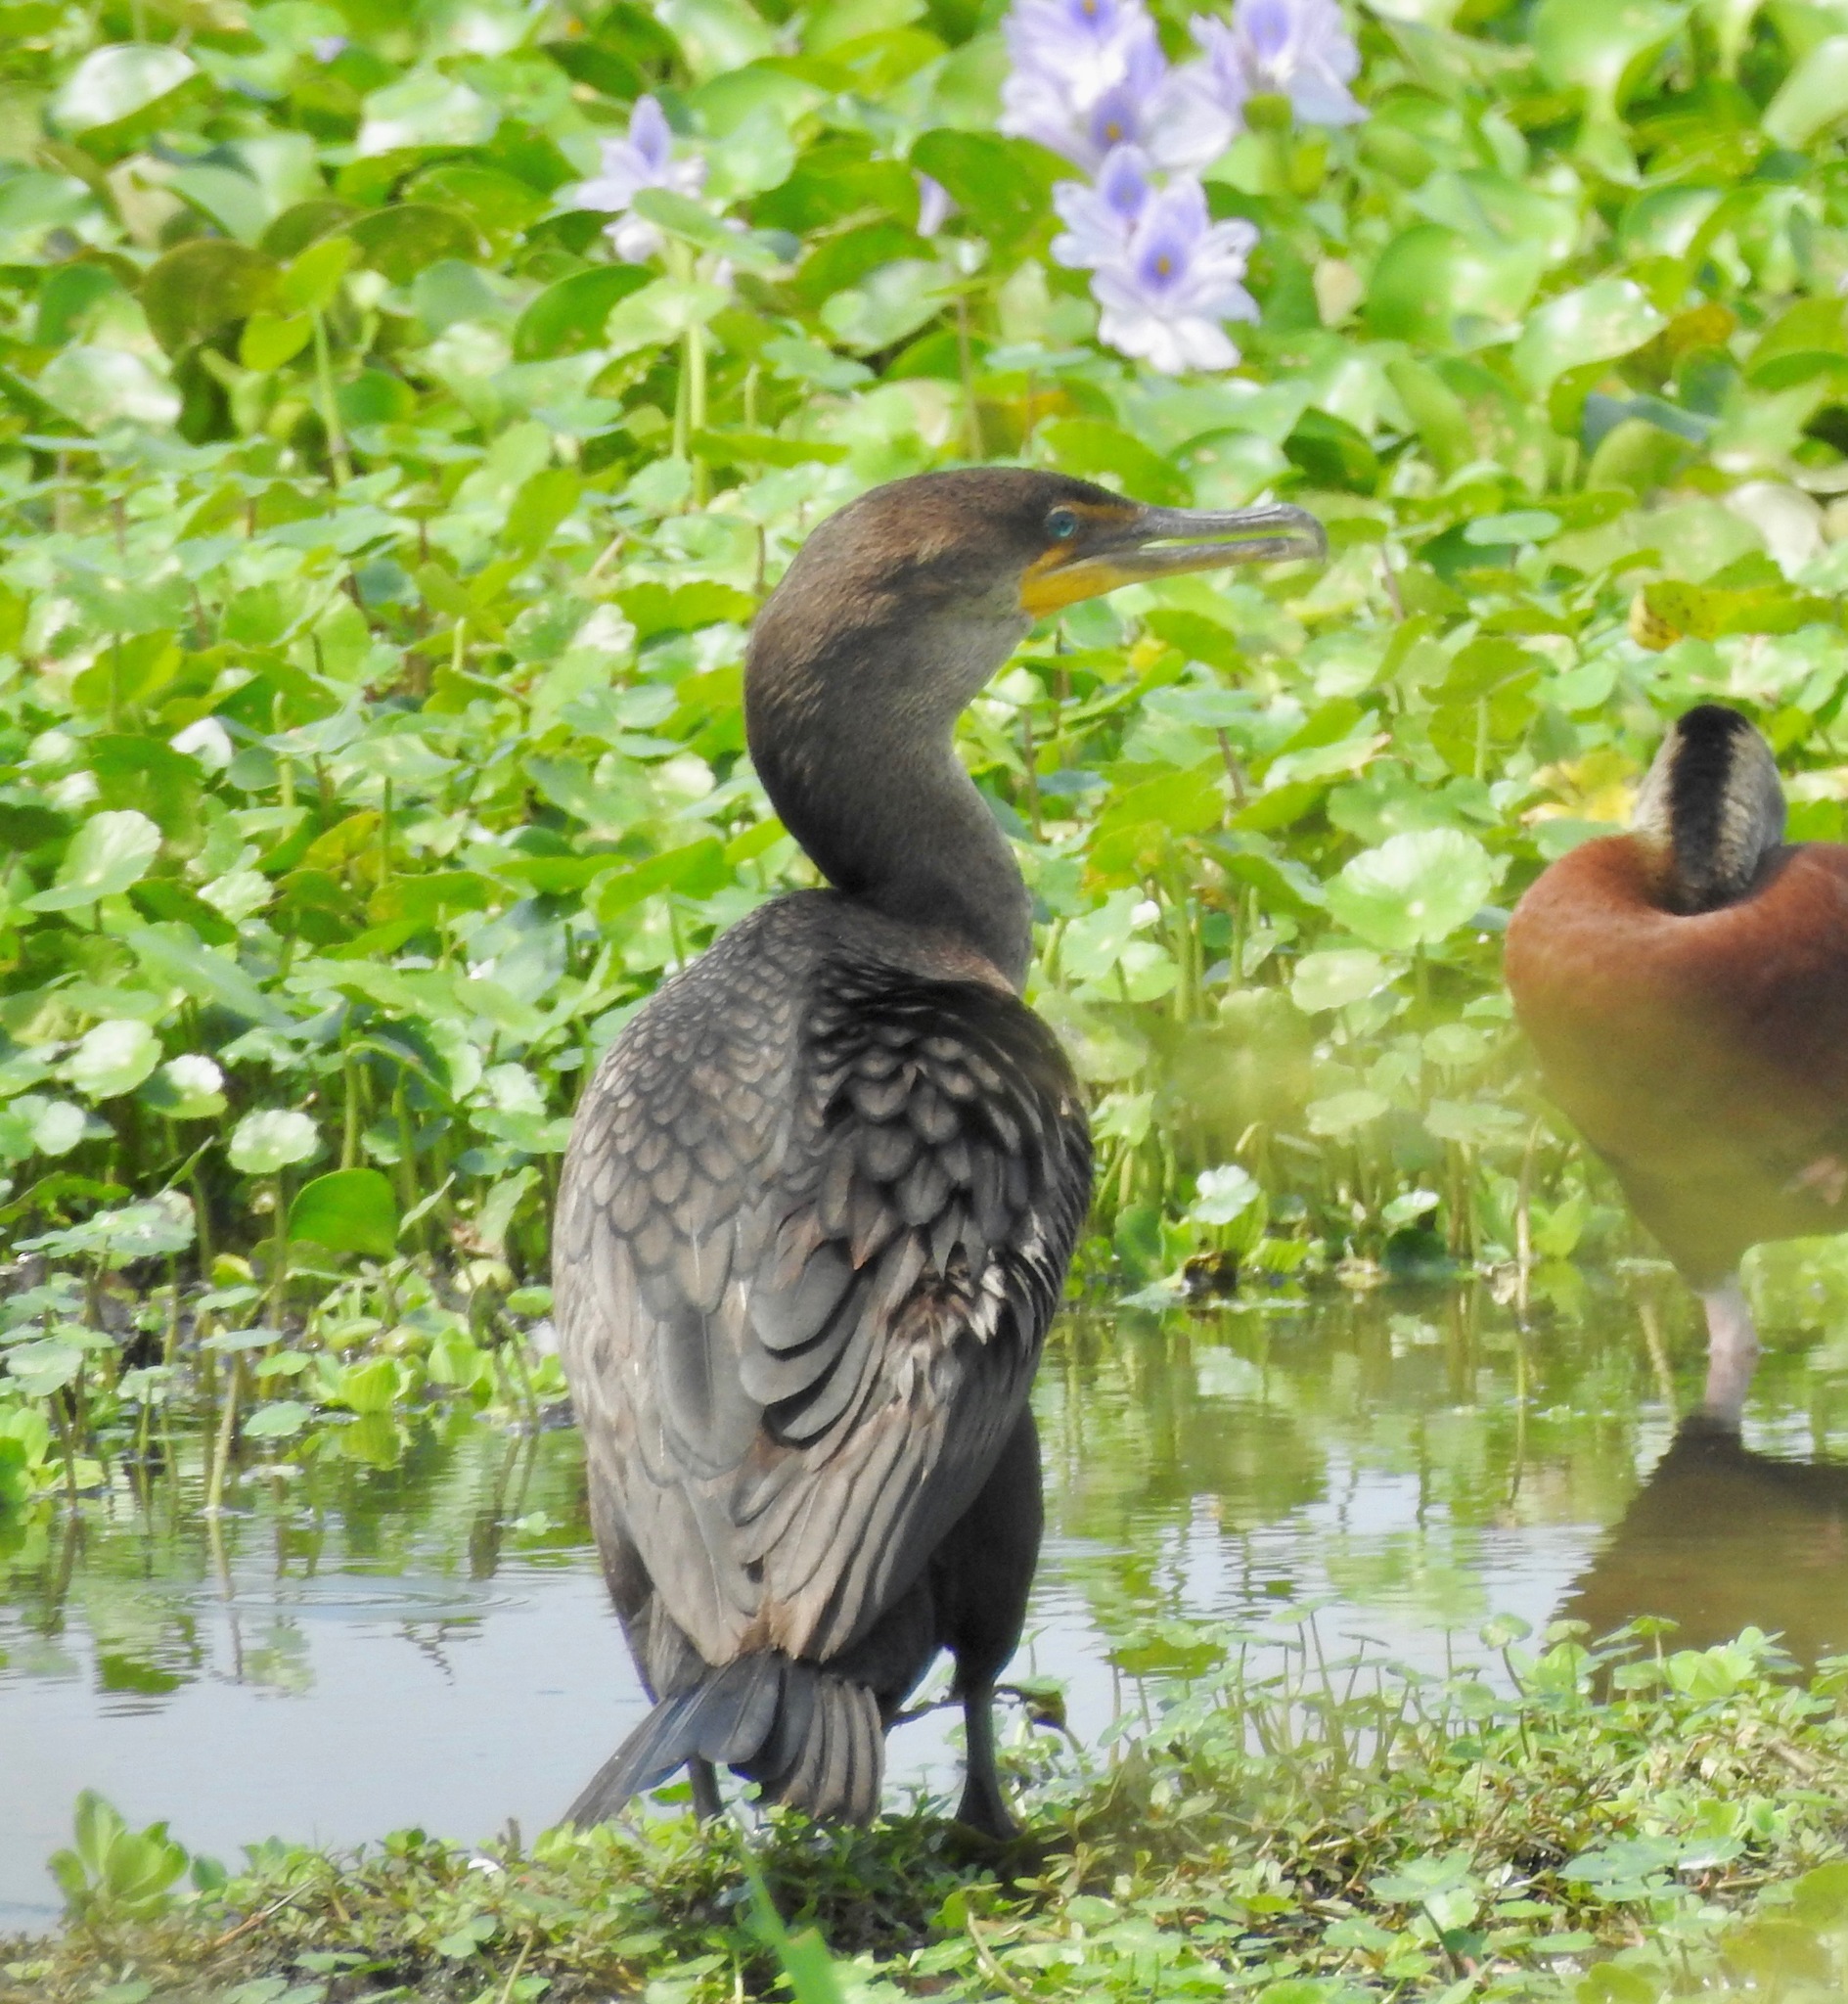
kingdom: Animalia
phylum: Chordata
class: Aves
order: Suliformes
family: Phalacrocoracidae
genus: Phalacrocorax
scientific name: Phalacrocorax auritus
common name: Double-crested cormorant
